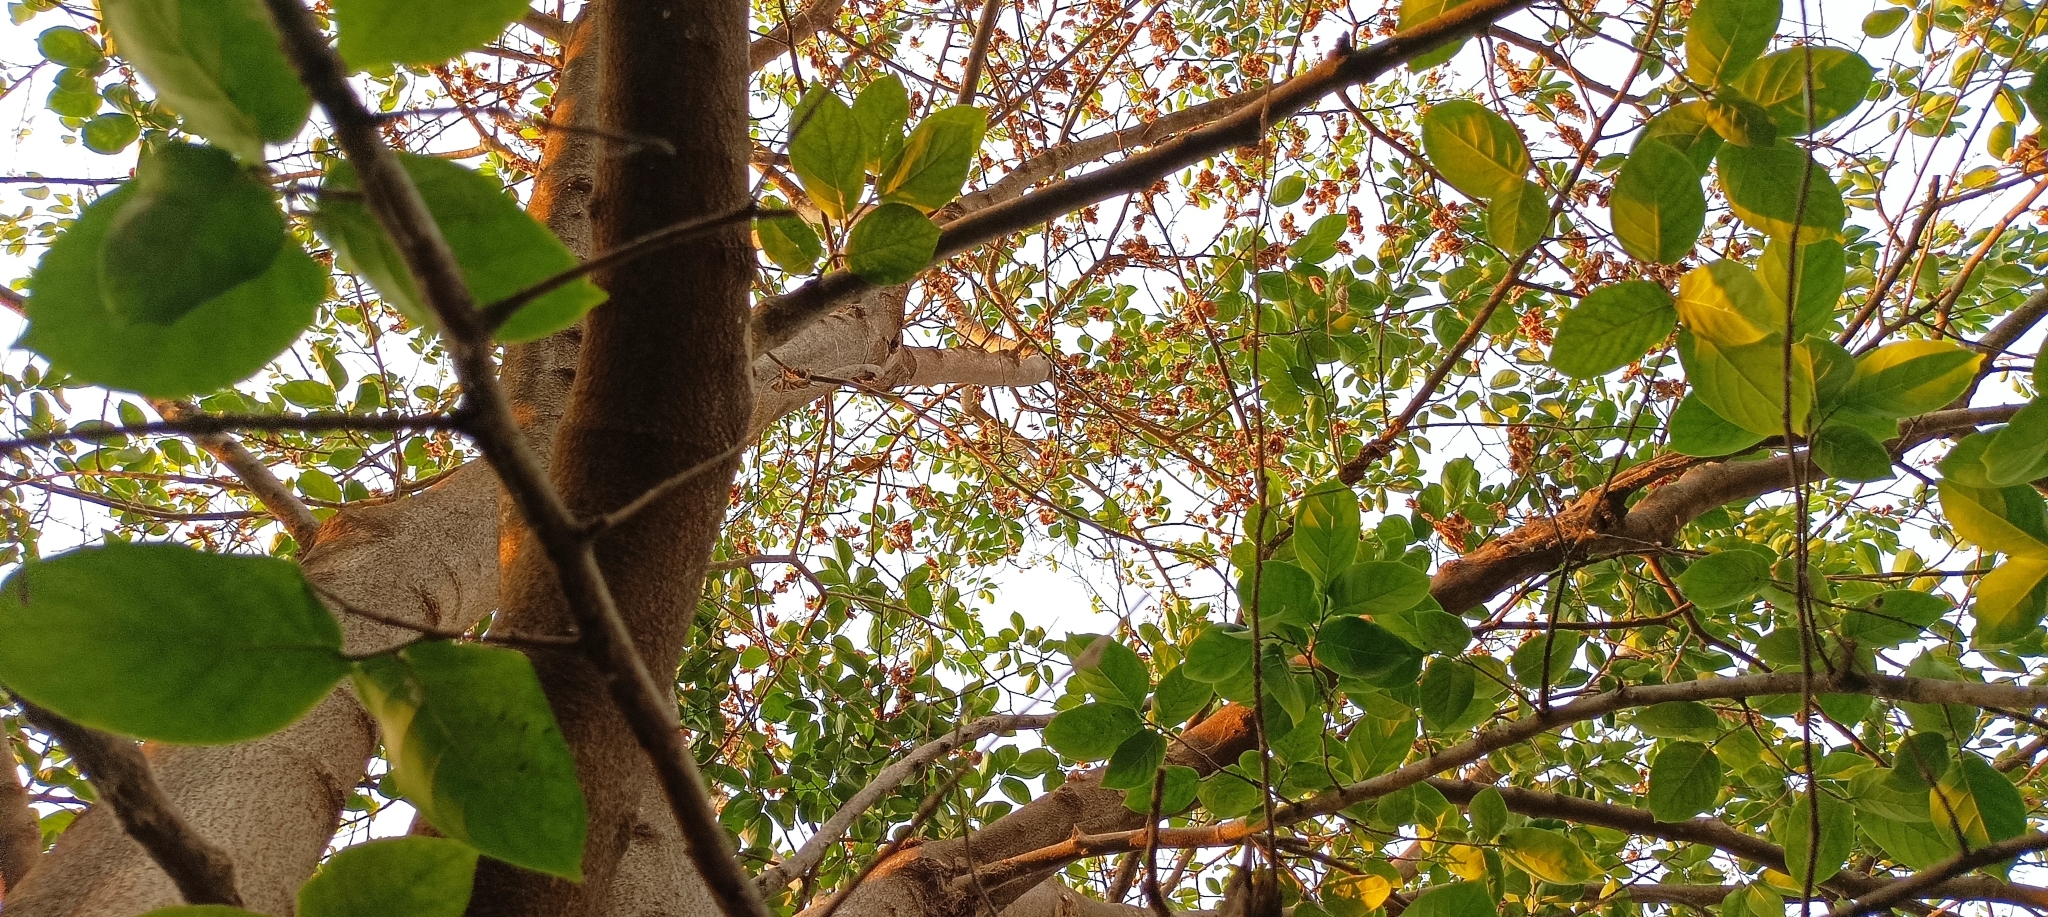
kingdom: Plantae
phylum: Tracheophyta
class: Magnoliopsida
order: Rosales
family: Ulmaceae
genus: Holoptelea
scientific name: Holoptelea integrifolia
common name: Indian-elm
